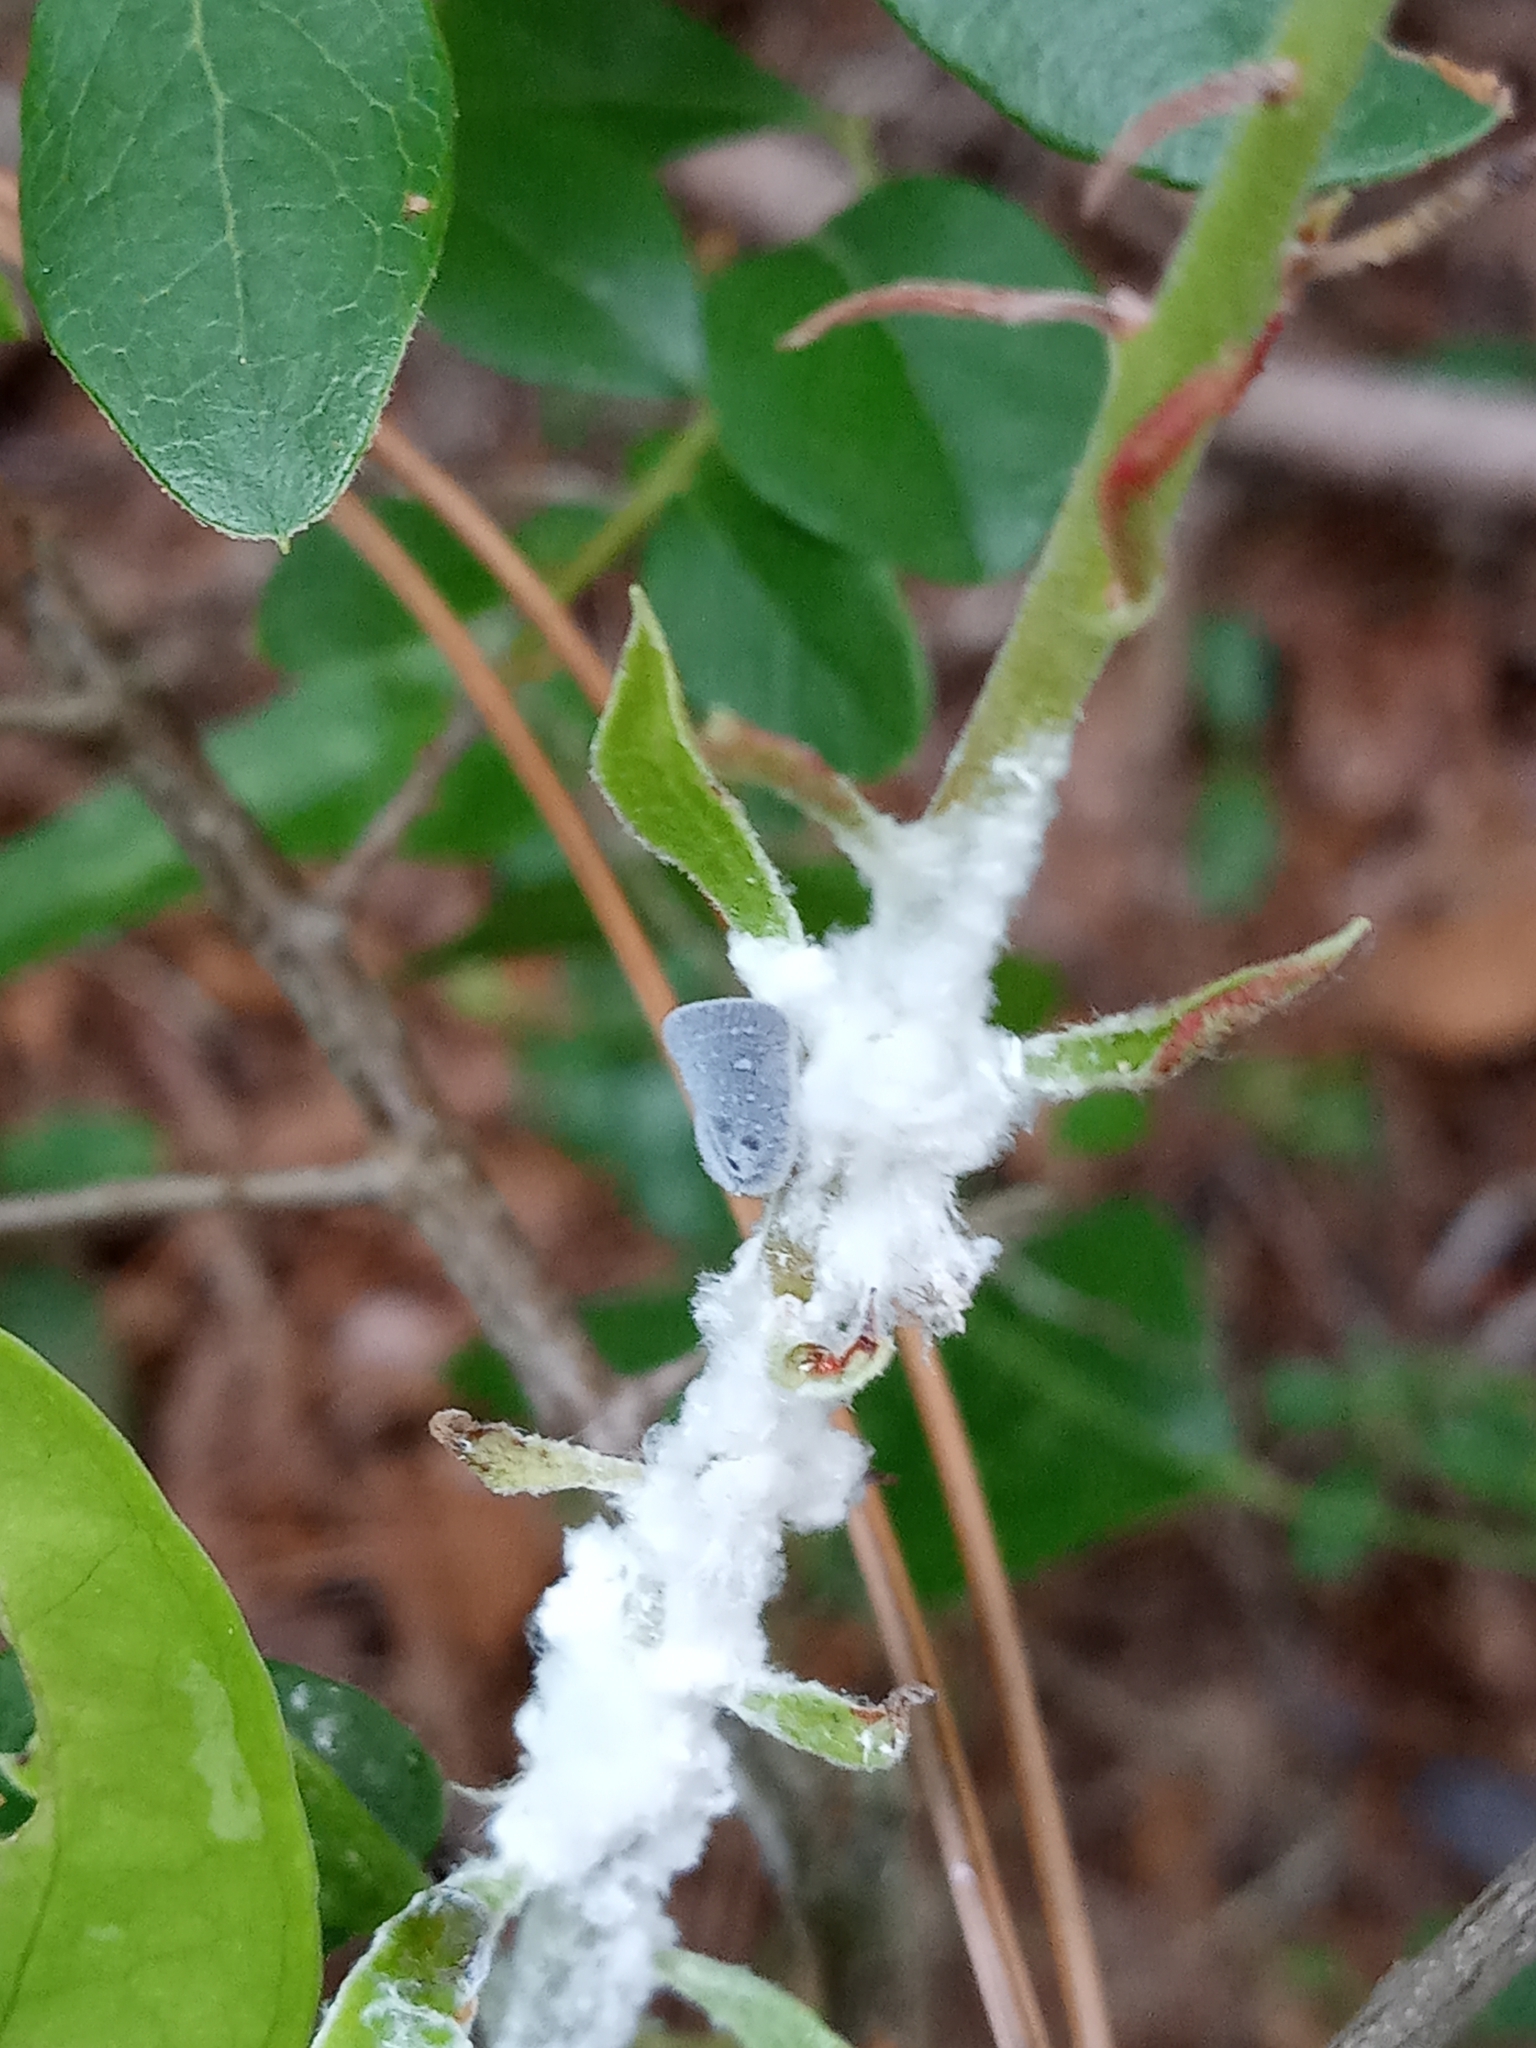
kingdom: Animalia
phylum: Arthropoda
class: Insecta
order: Hemiptera
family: Flatidae
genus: Metcalfa
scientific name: Metcalfa pruinosa
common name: Citrus flatid planthopper
